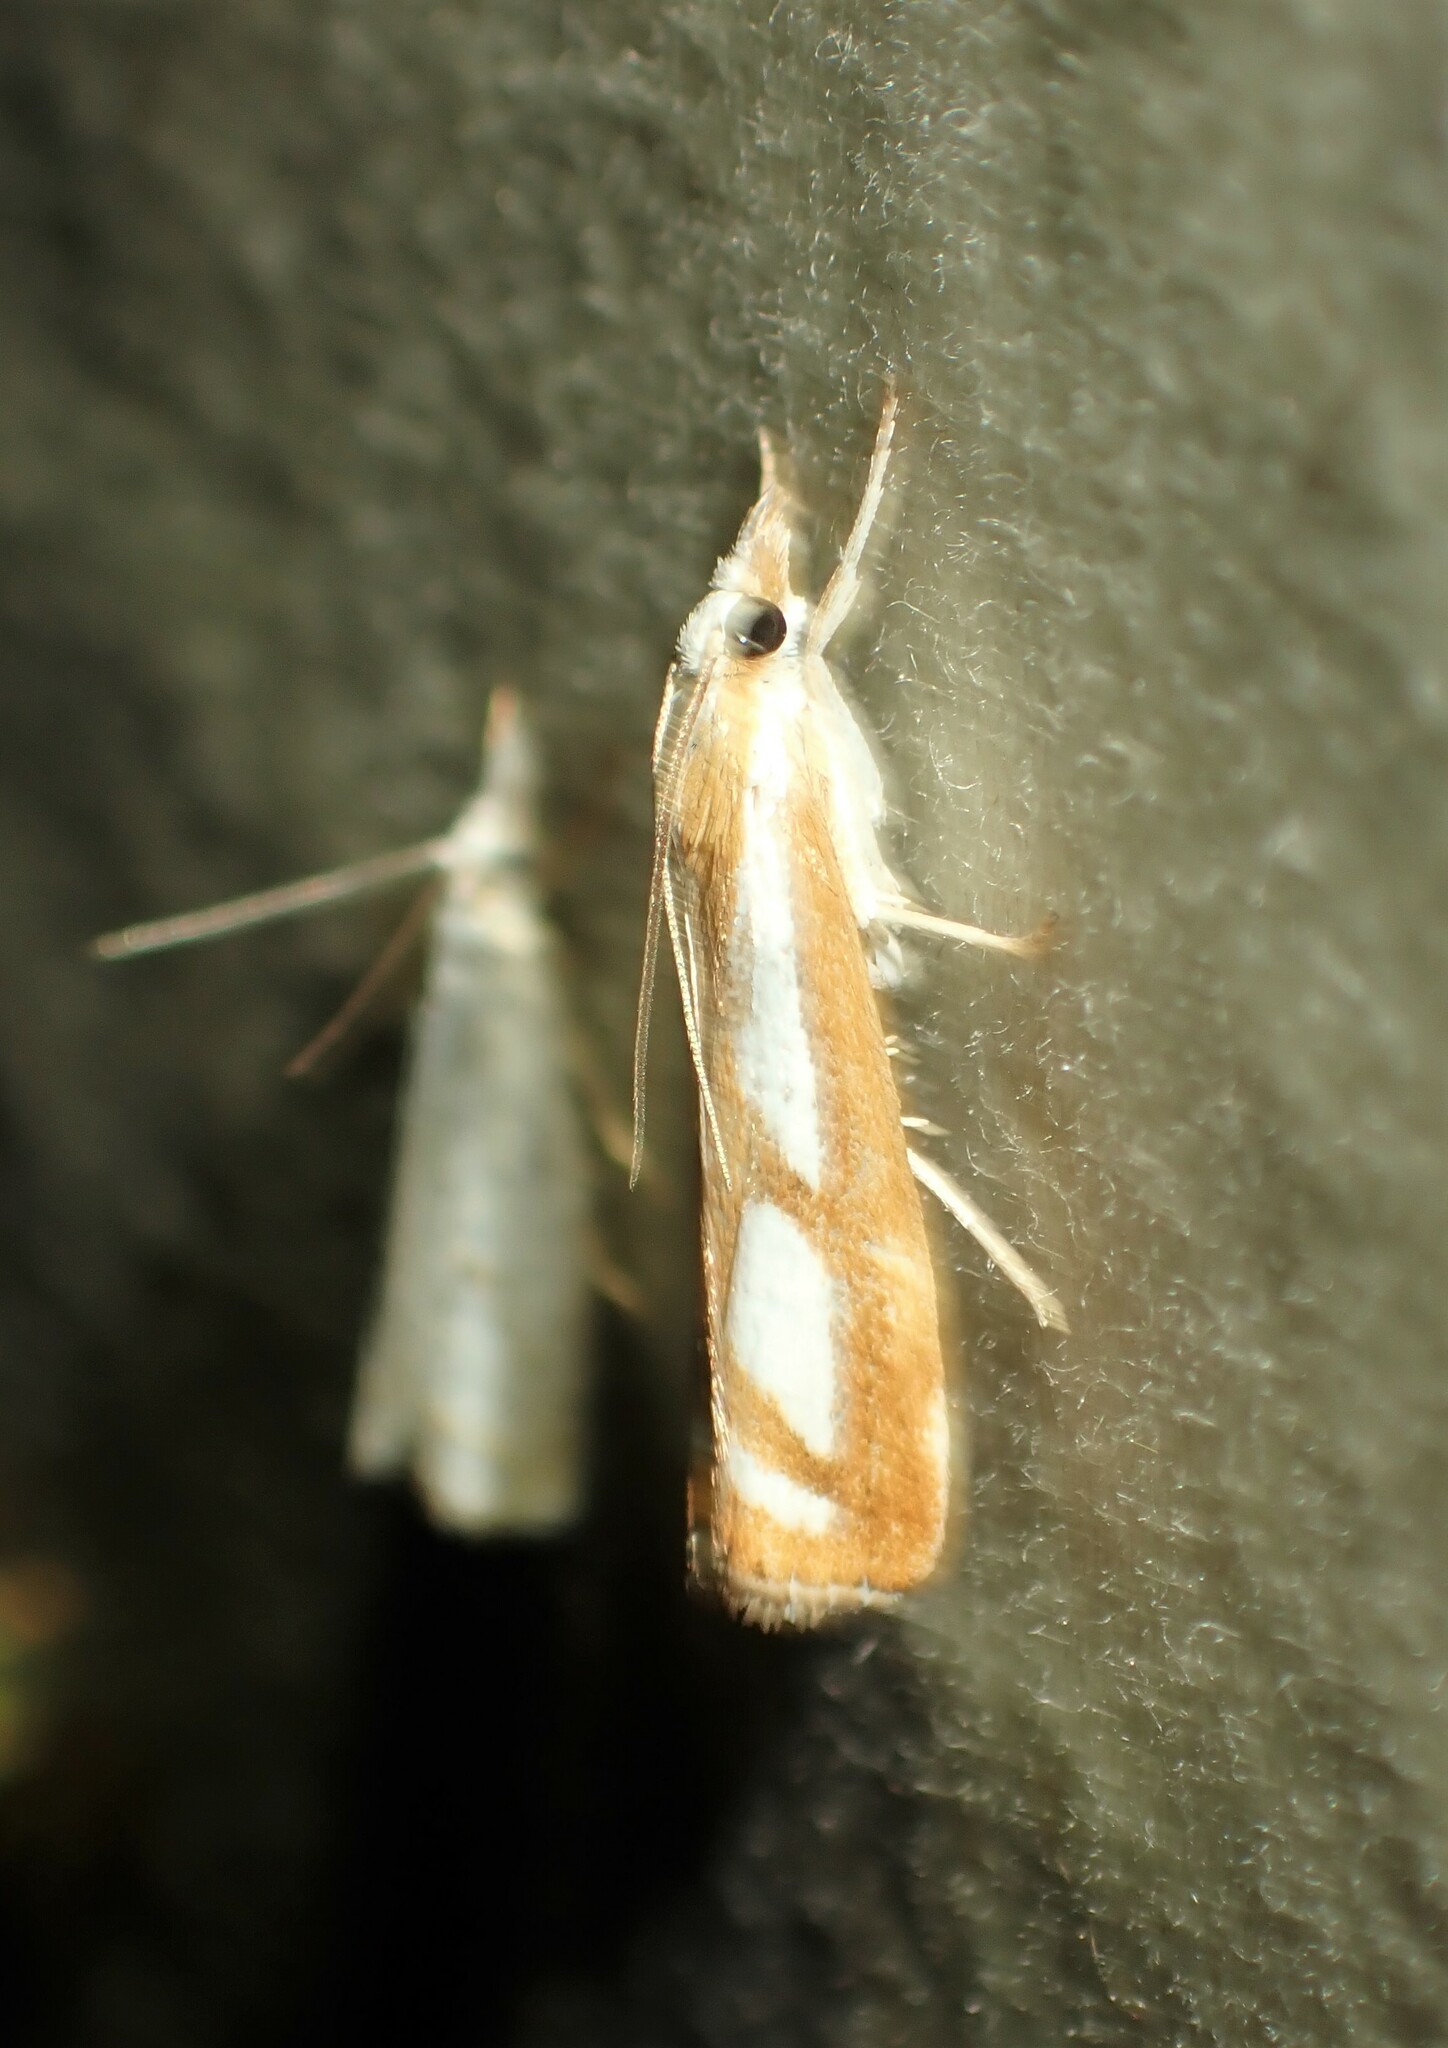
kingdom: Animalia
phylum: Arthropoda
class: Insecta
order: Lepidoptera
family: Crambidae
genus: Catoptria
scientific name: Catoptria latiradiellus
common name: Two-banded catoptria moth
